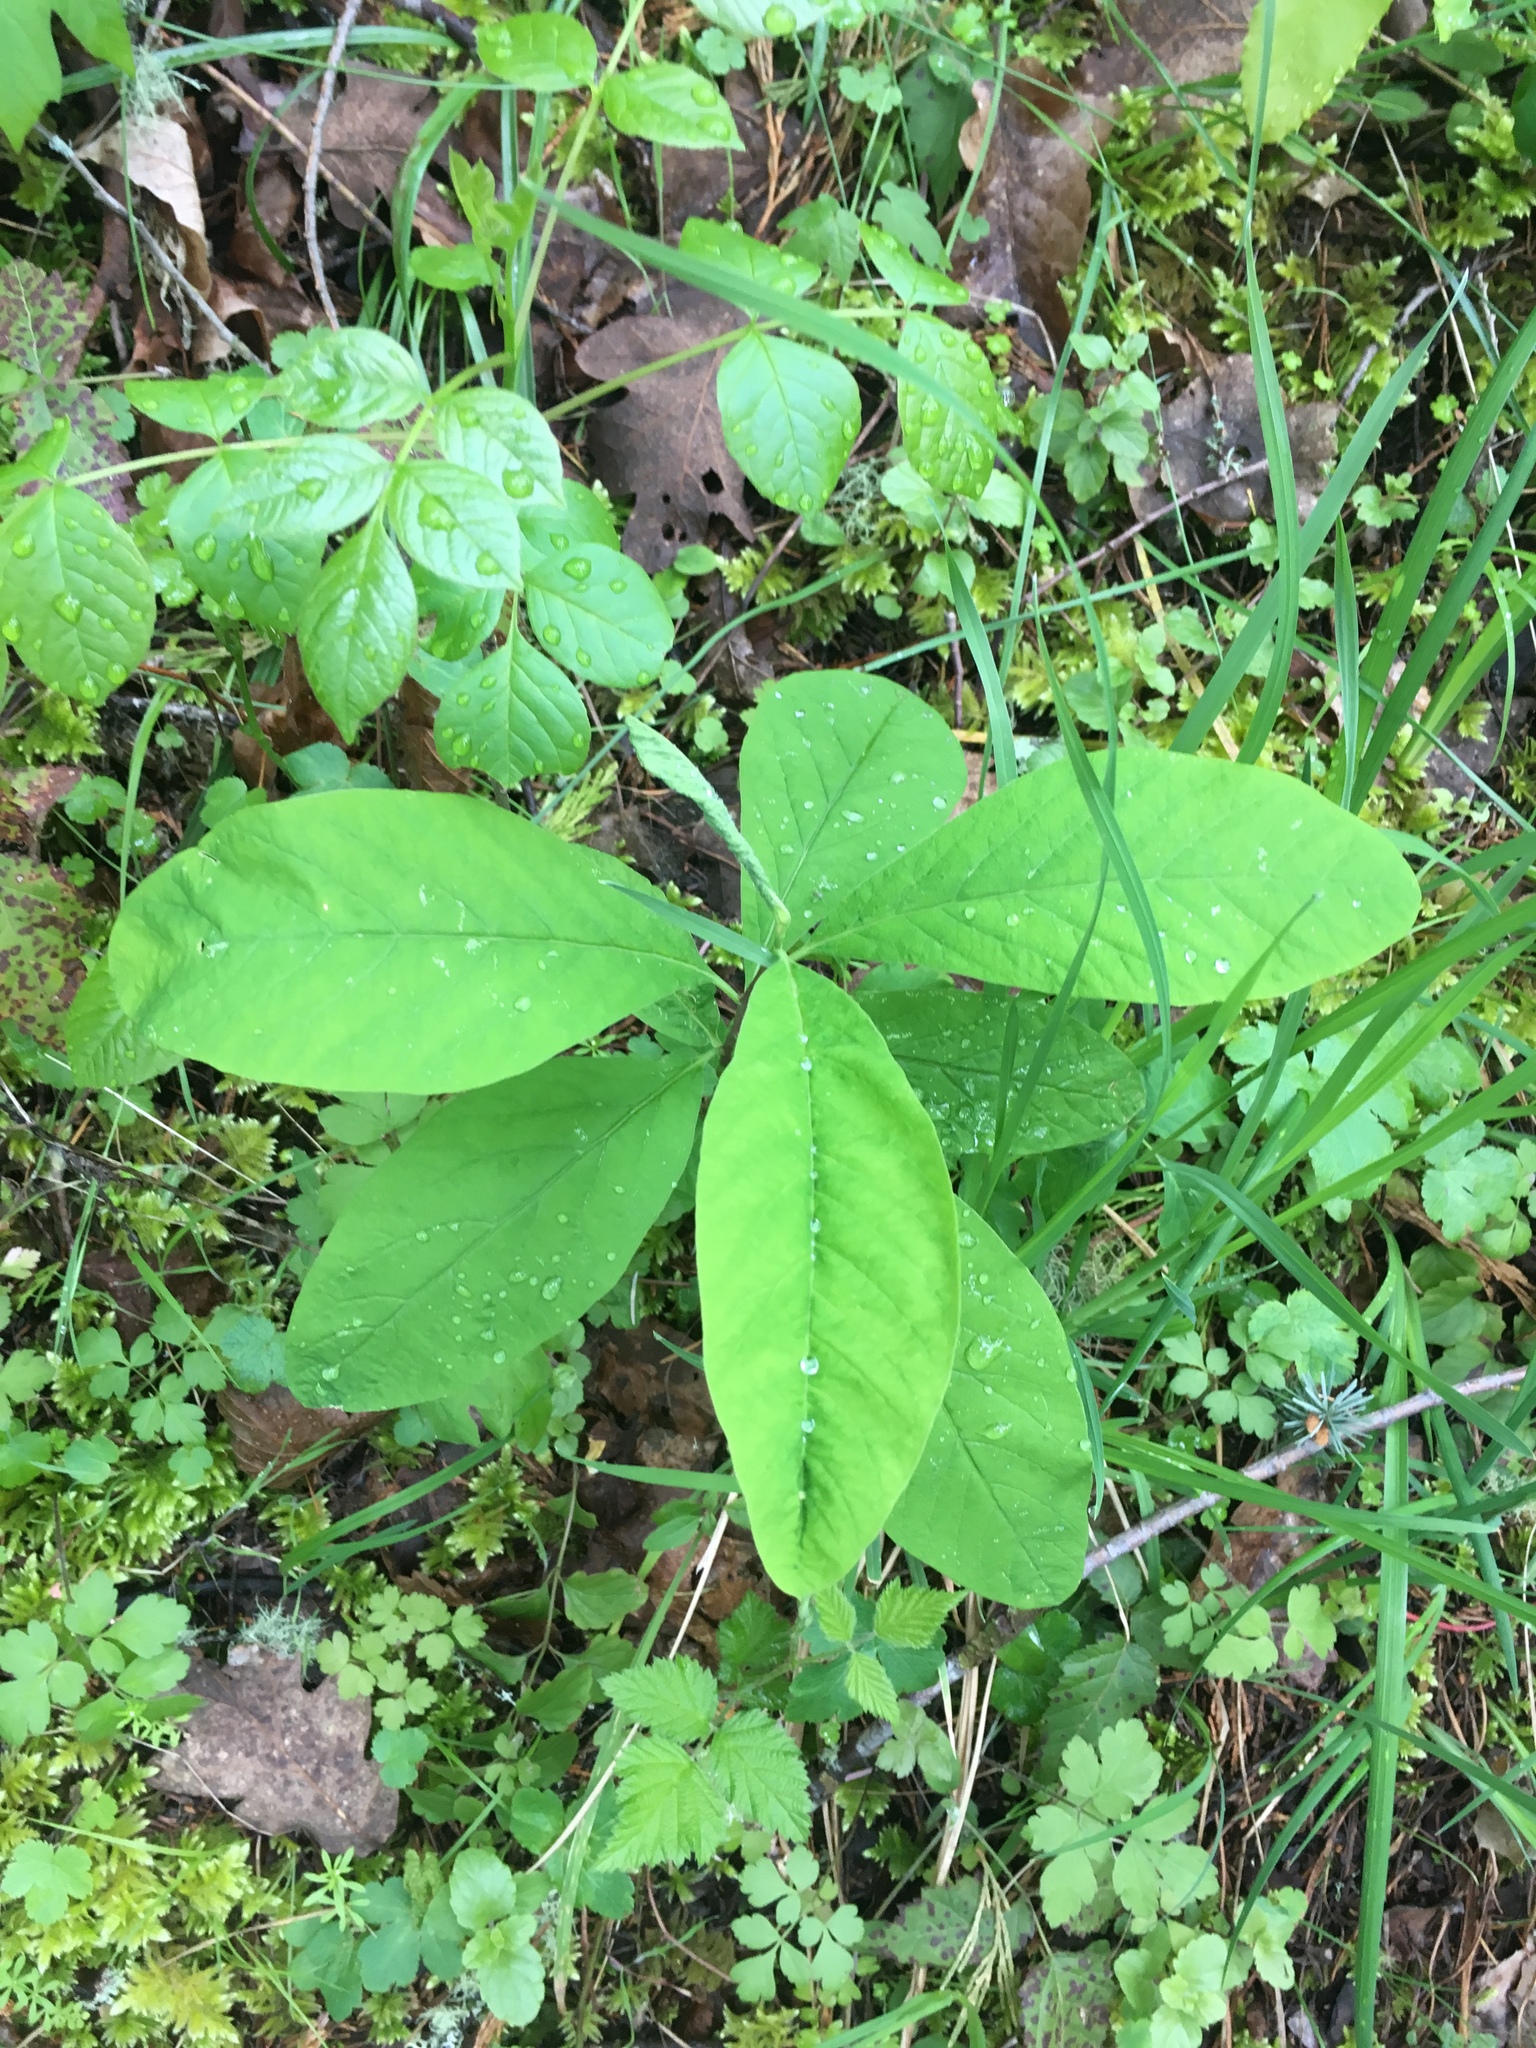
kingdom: Plantae
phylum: Tracheophyta
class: Magnoliopsida
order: Rosales
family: Rosaceae
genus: Oemleria
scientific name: Oemleria cerasiformis
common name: Osoberry
